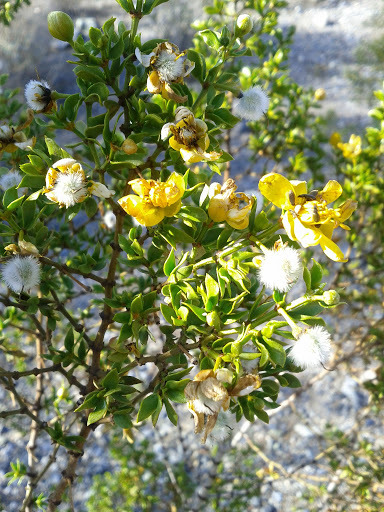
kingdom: Plantae
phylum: Tracheophyta
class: Magnoliopsida
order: Zygophyllales
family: Zygophyllaceae
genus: Larrea
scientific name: Larrea tridentata
